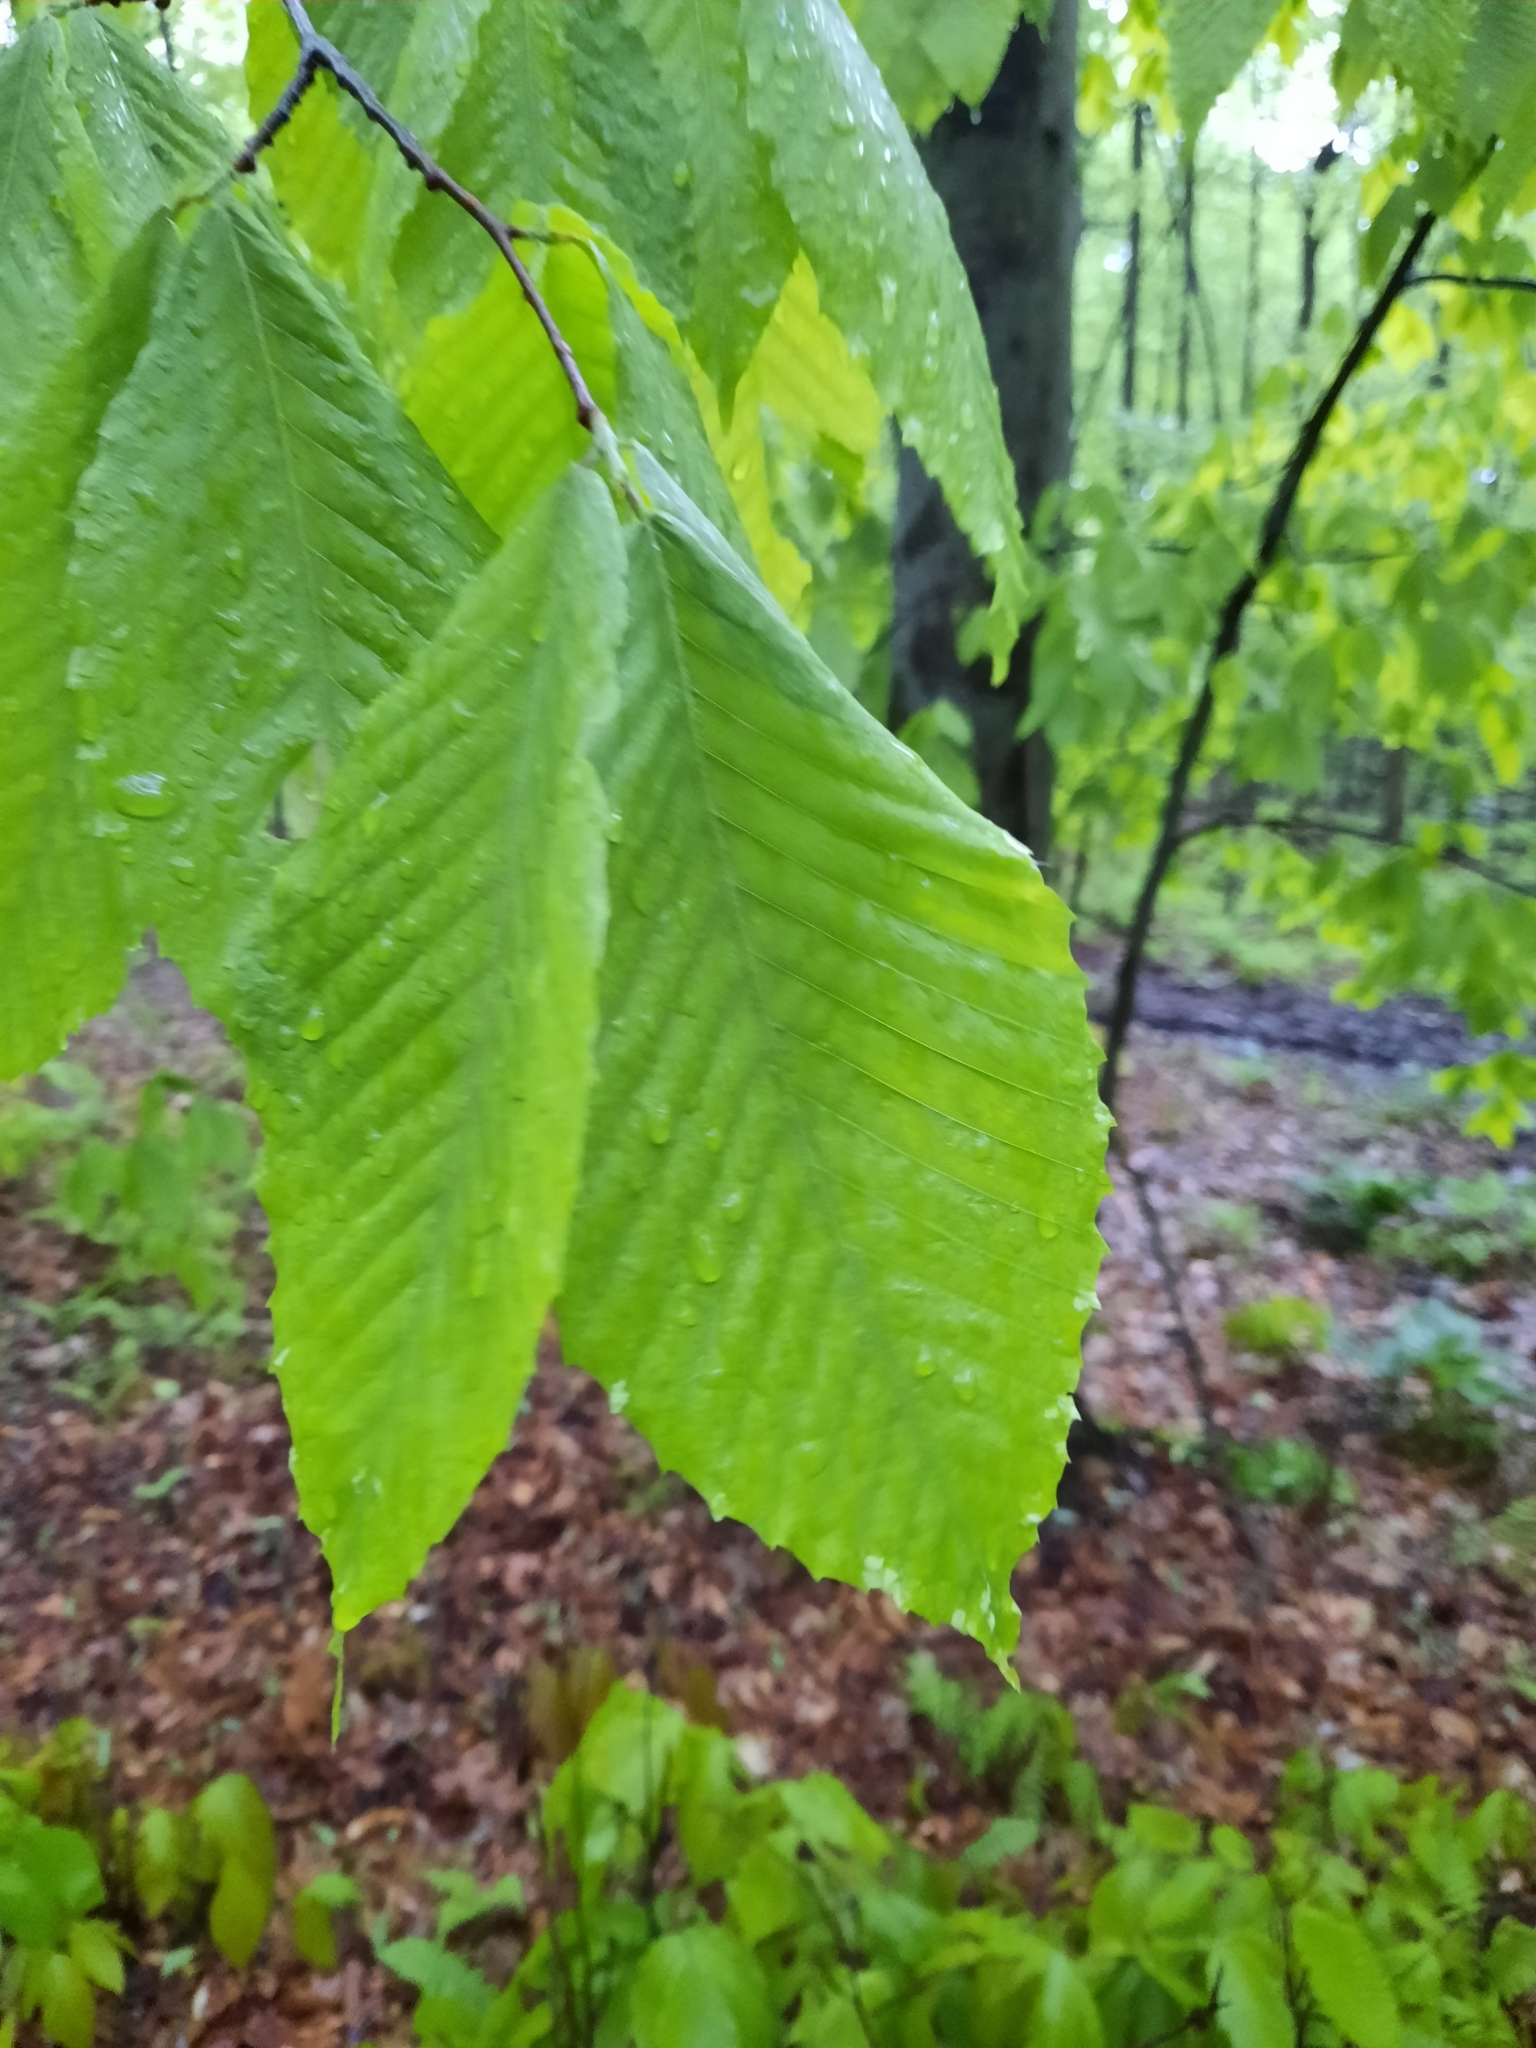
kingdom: Plantae
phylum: Tracheophyta
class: Magnoliopsida
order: Fagales
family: Fagaceae
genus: Fagus
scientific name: Fagus grandifolia
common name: American beech
